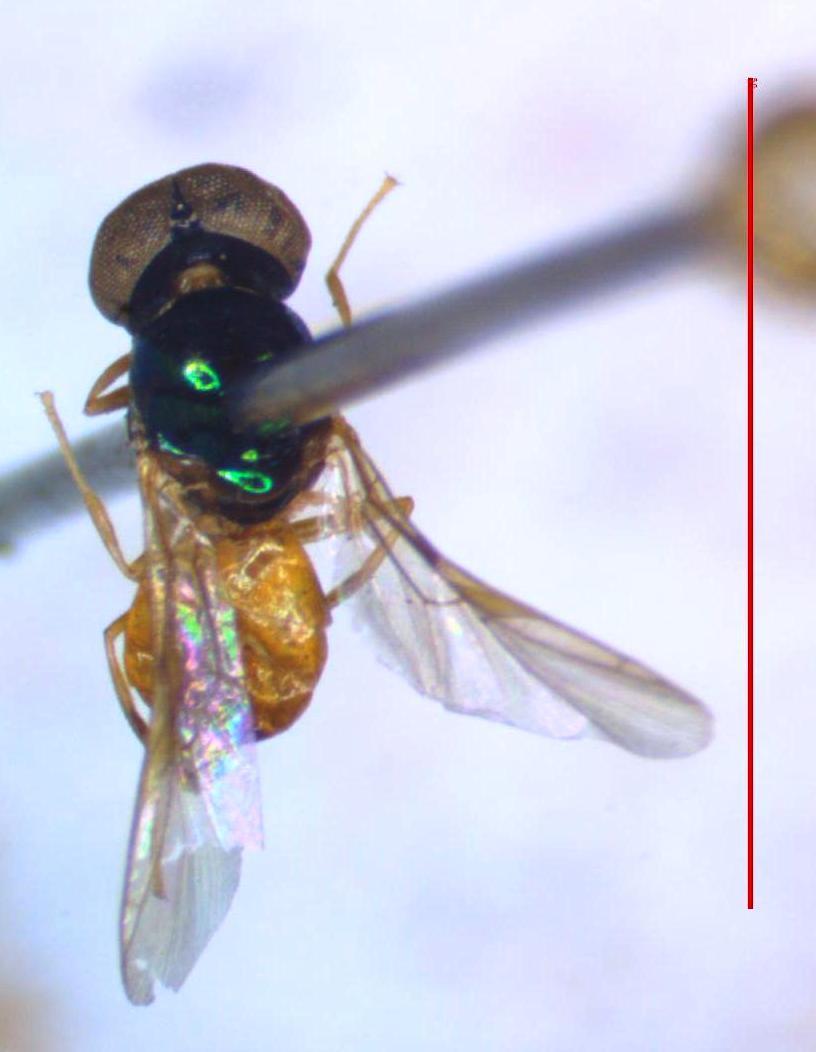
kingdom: Animalia
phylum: Arthropoda
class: Insecta
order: Diptera
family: Stratiomyidae
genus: Microchrysa
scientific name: Microchrysa bicolor
